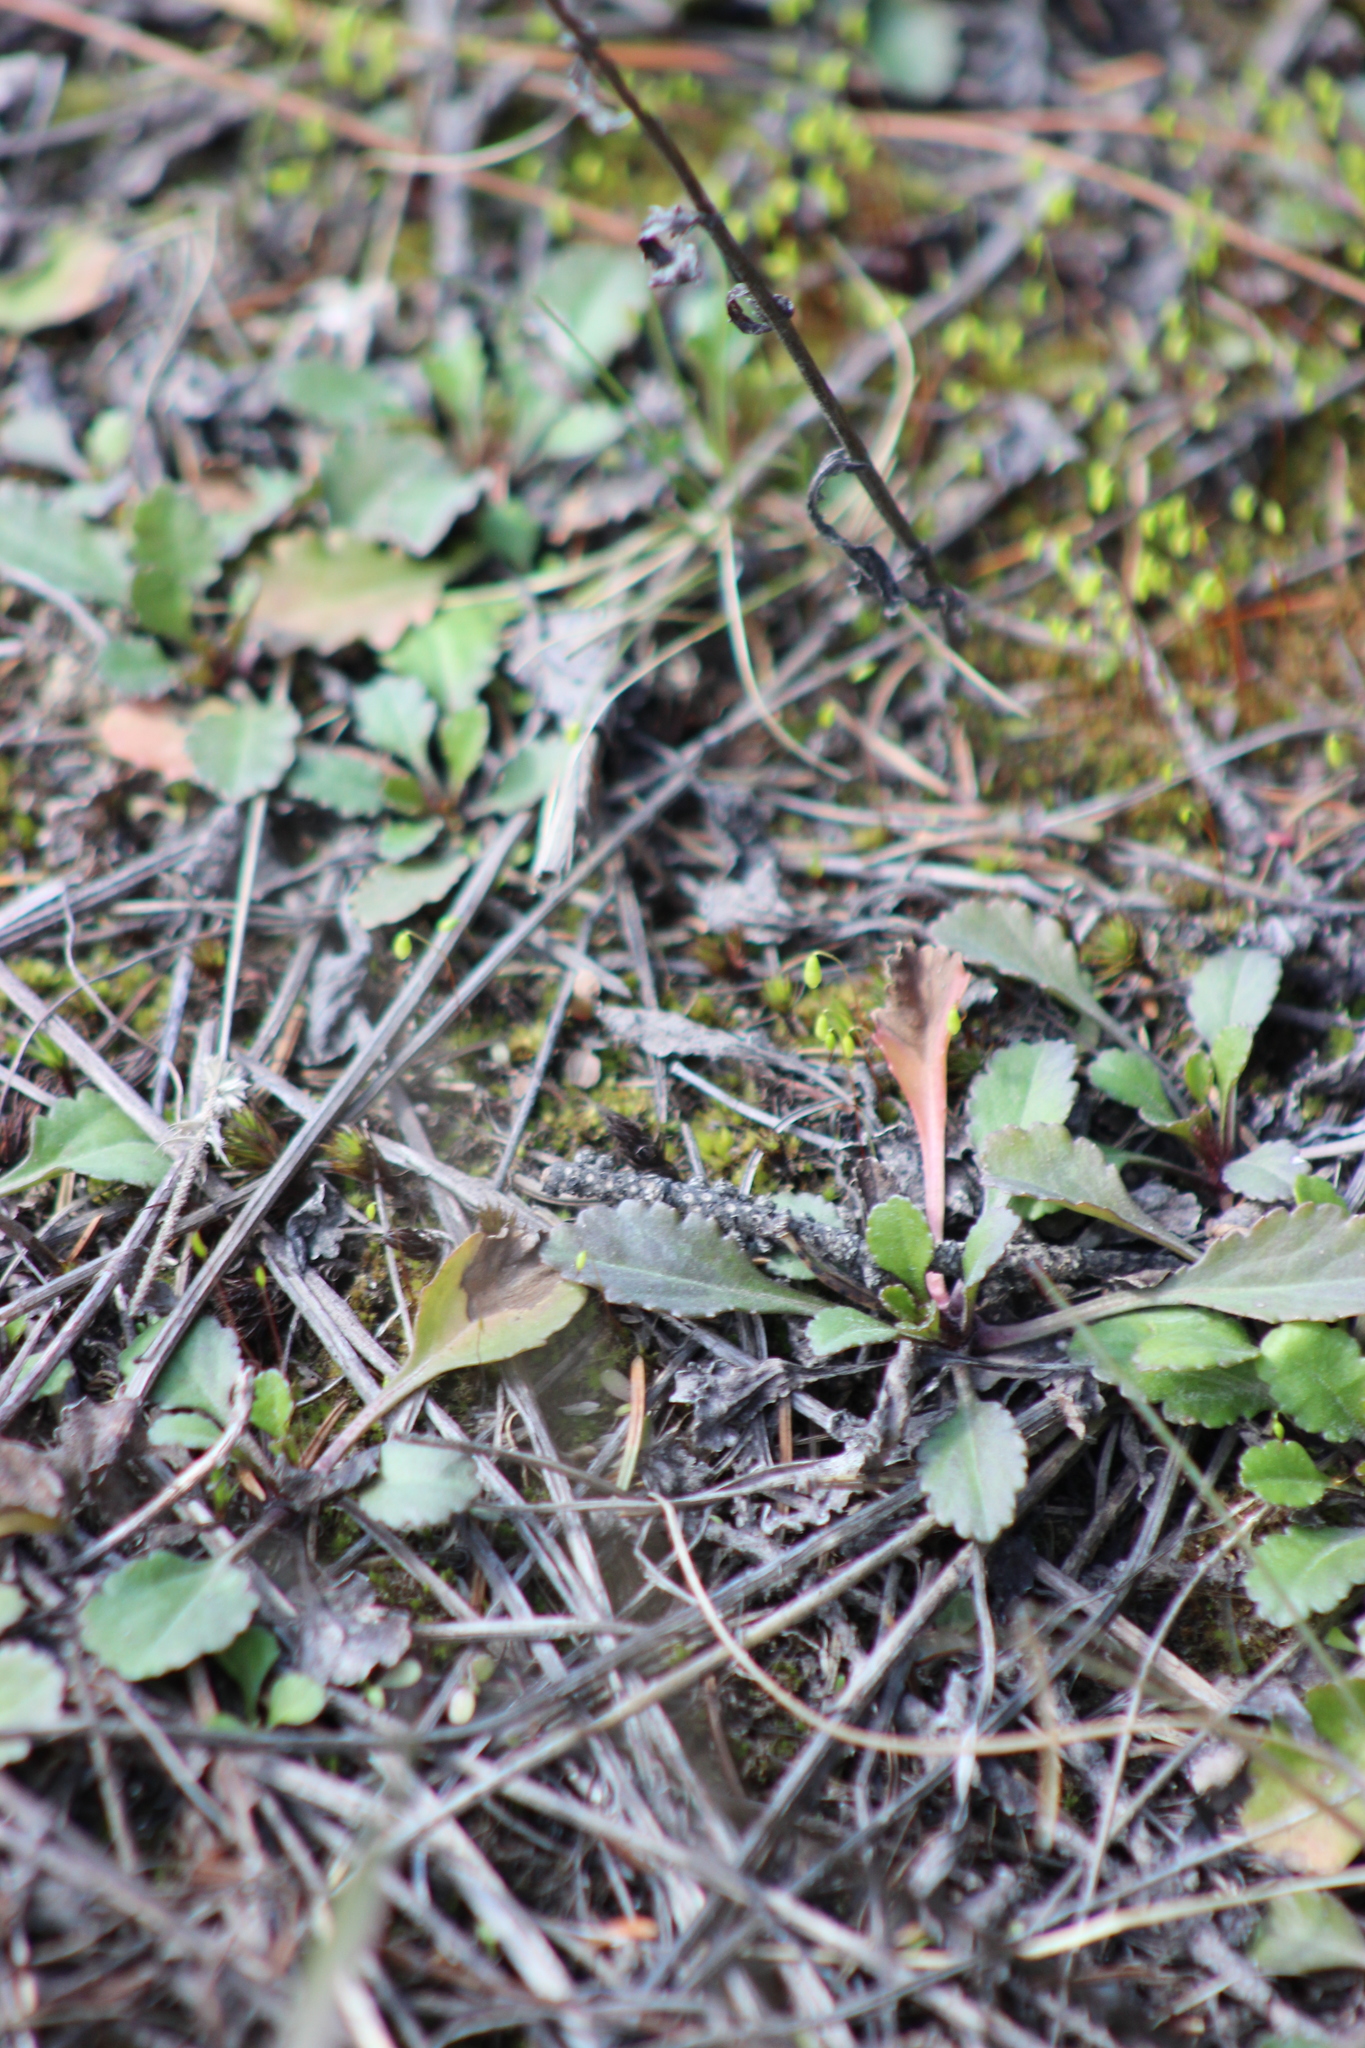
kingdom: Plantae
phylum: Tracheophyta
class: Magnoliopsida
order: Asterales
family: Asteraceae
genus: Leucanthemum
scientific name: Leucanthemum ircutianum
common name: Daisy
